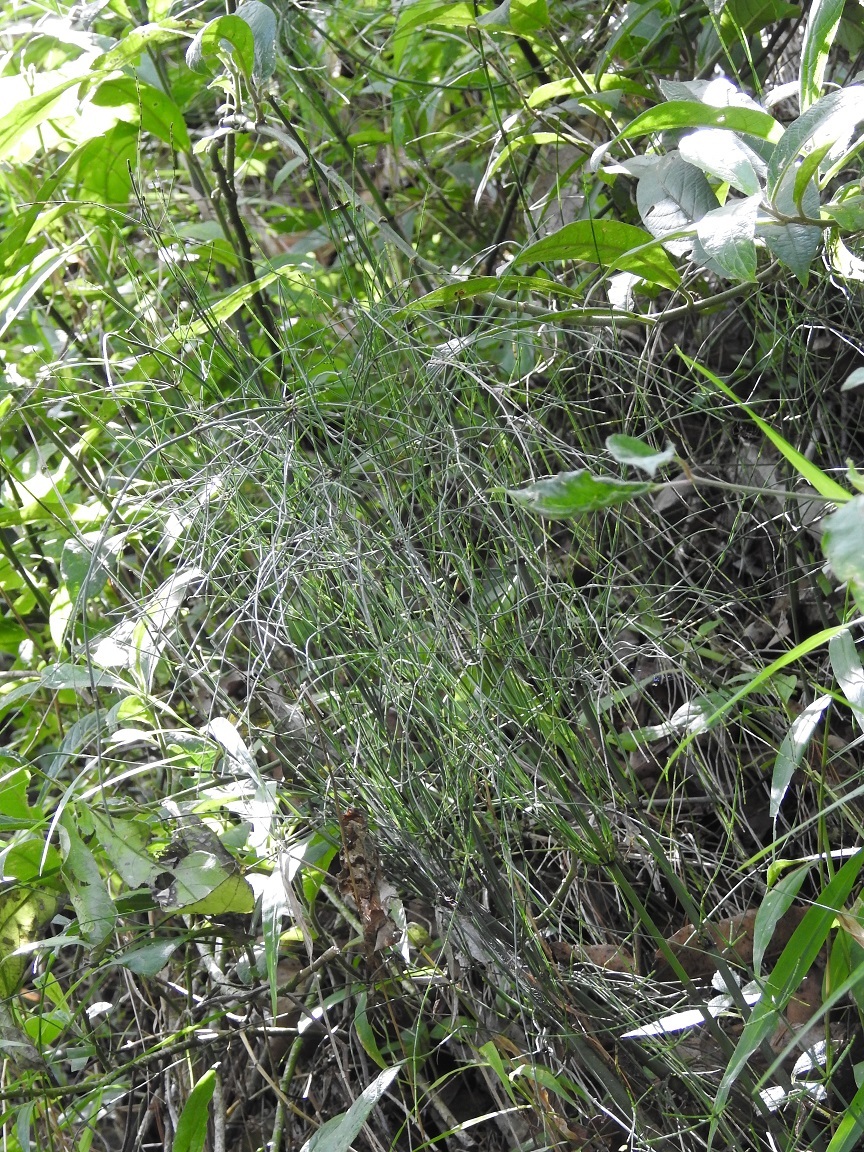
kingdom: Plantae
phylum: Tracheophyta
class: Polypodiopsida
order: Equisetales
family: Equisetaceae
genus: Equisetum
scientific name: Equisetum myriochaetum
